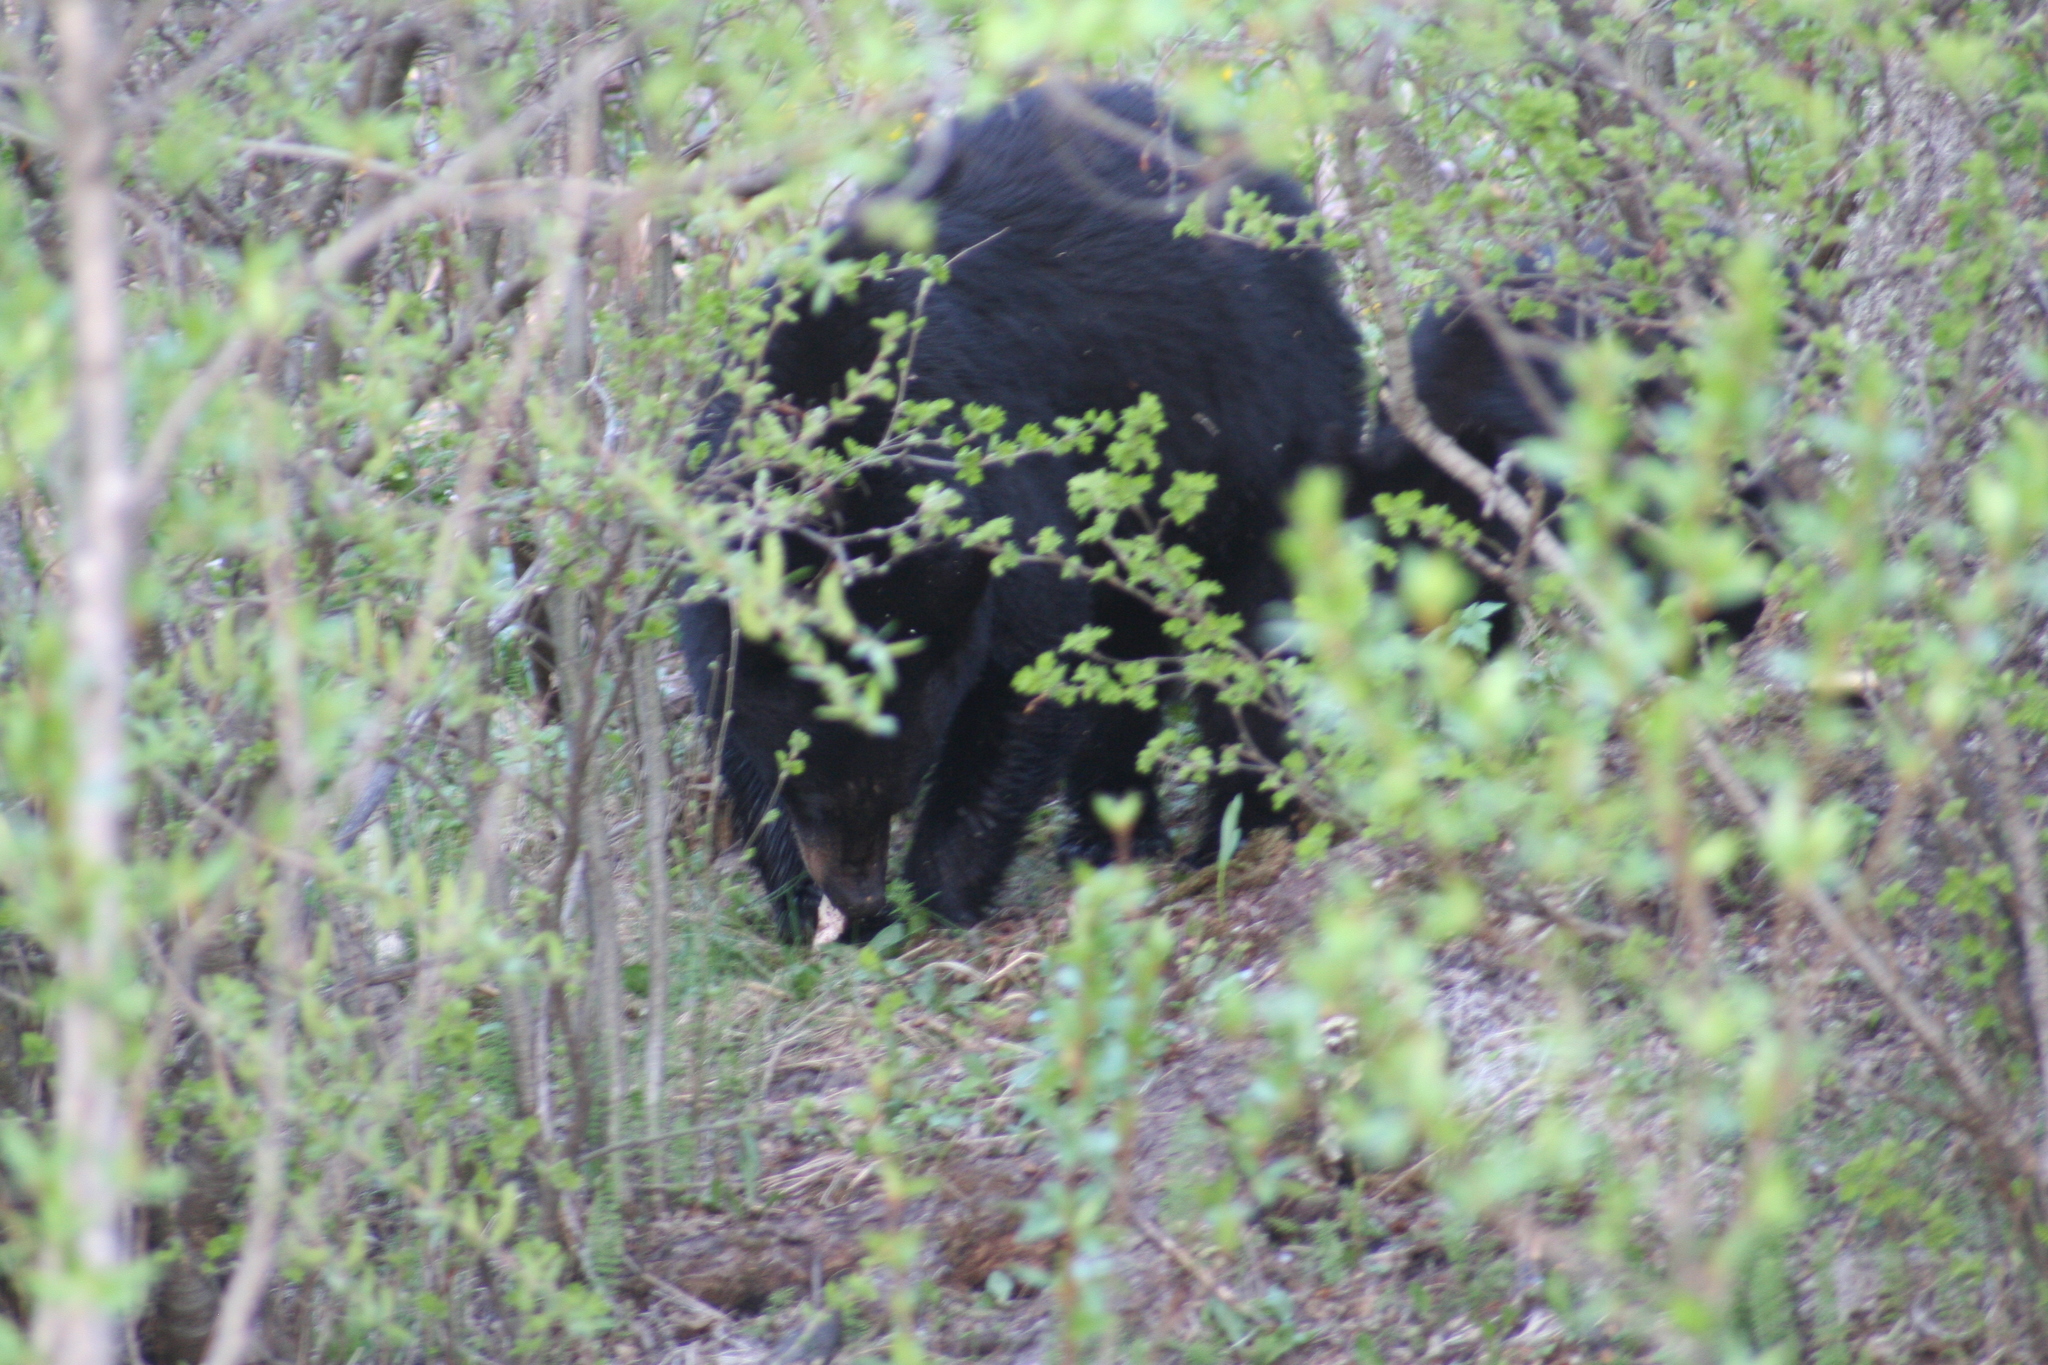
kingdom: Animalia
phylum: Chordata
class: Mammalia
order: Carnivora
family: Ursidae
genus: Ursus
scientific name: Ursus americanus
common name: American black bear
